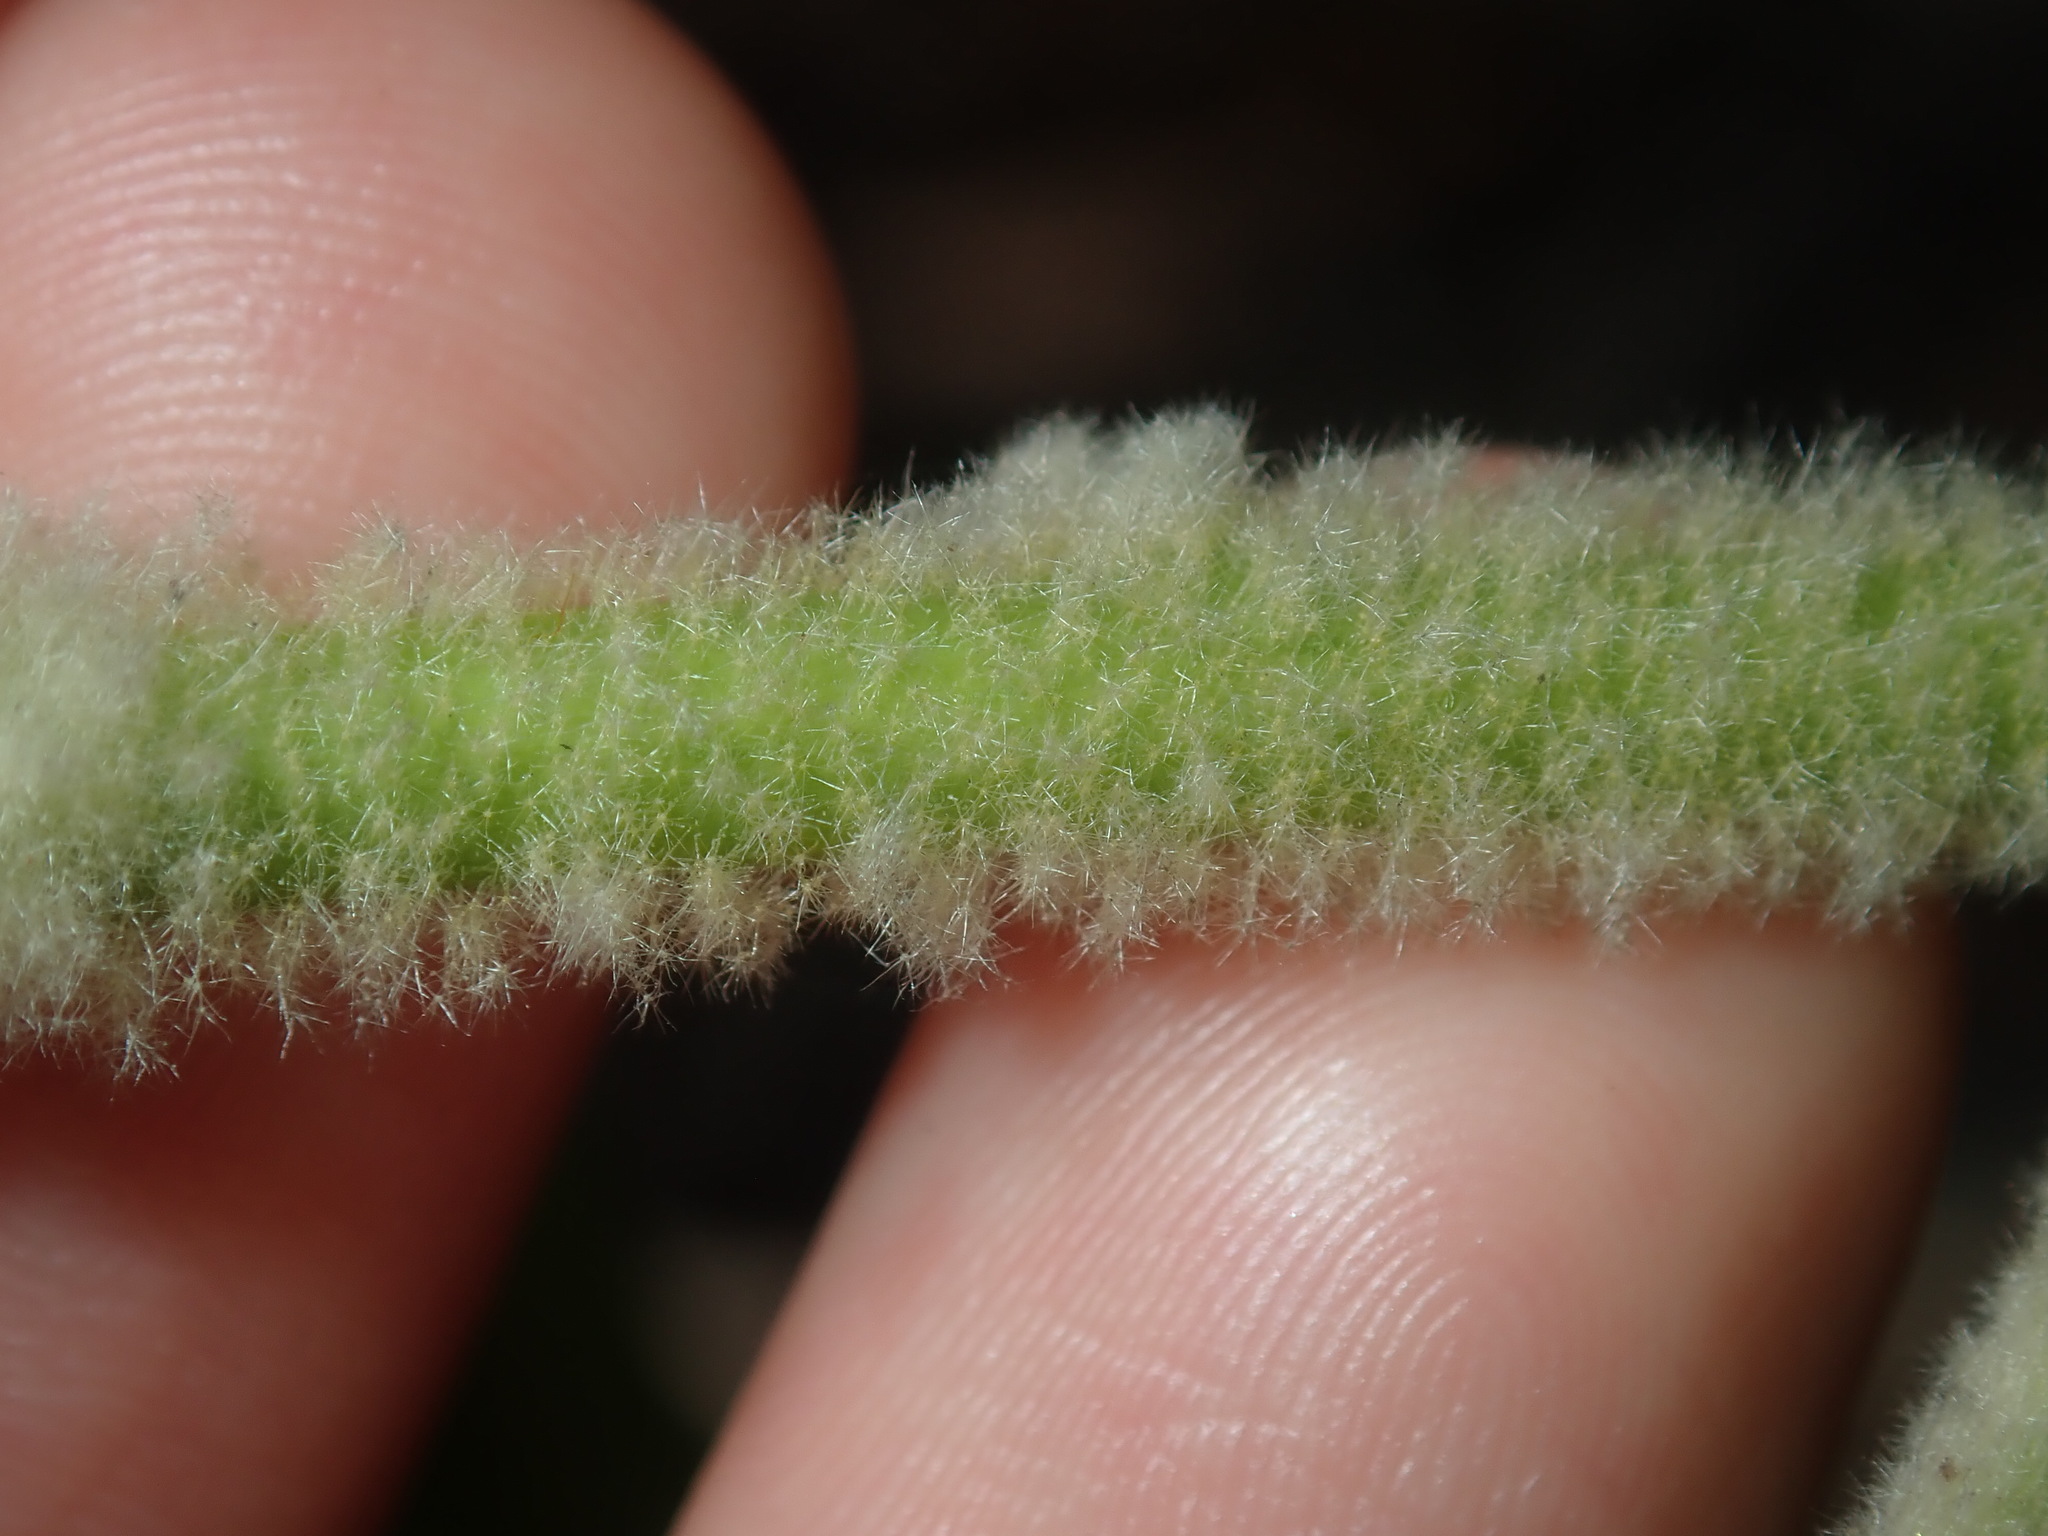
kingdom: Plantae
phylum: Tracheophyta
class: Magnoliopsida
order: Apiales
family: Araliaceae
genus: Astrotricha
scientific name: Astrotricha floccosa
